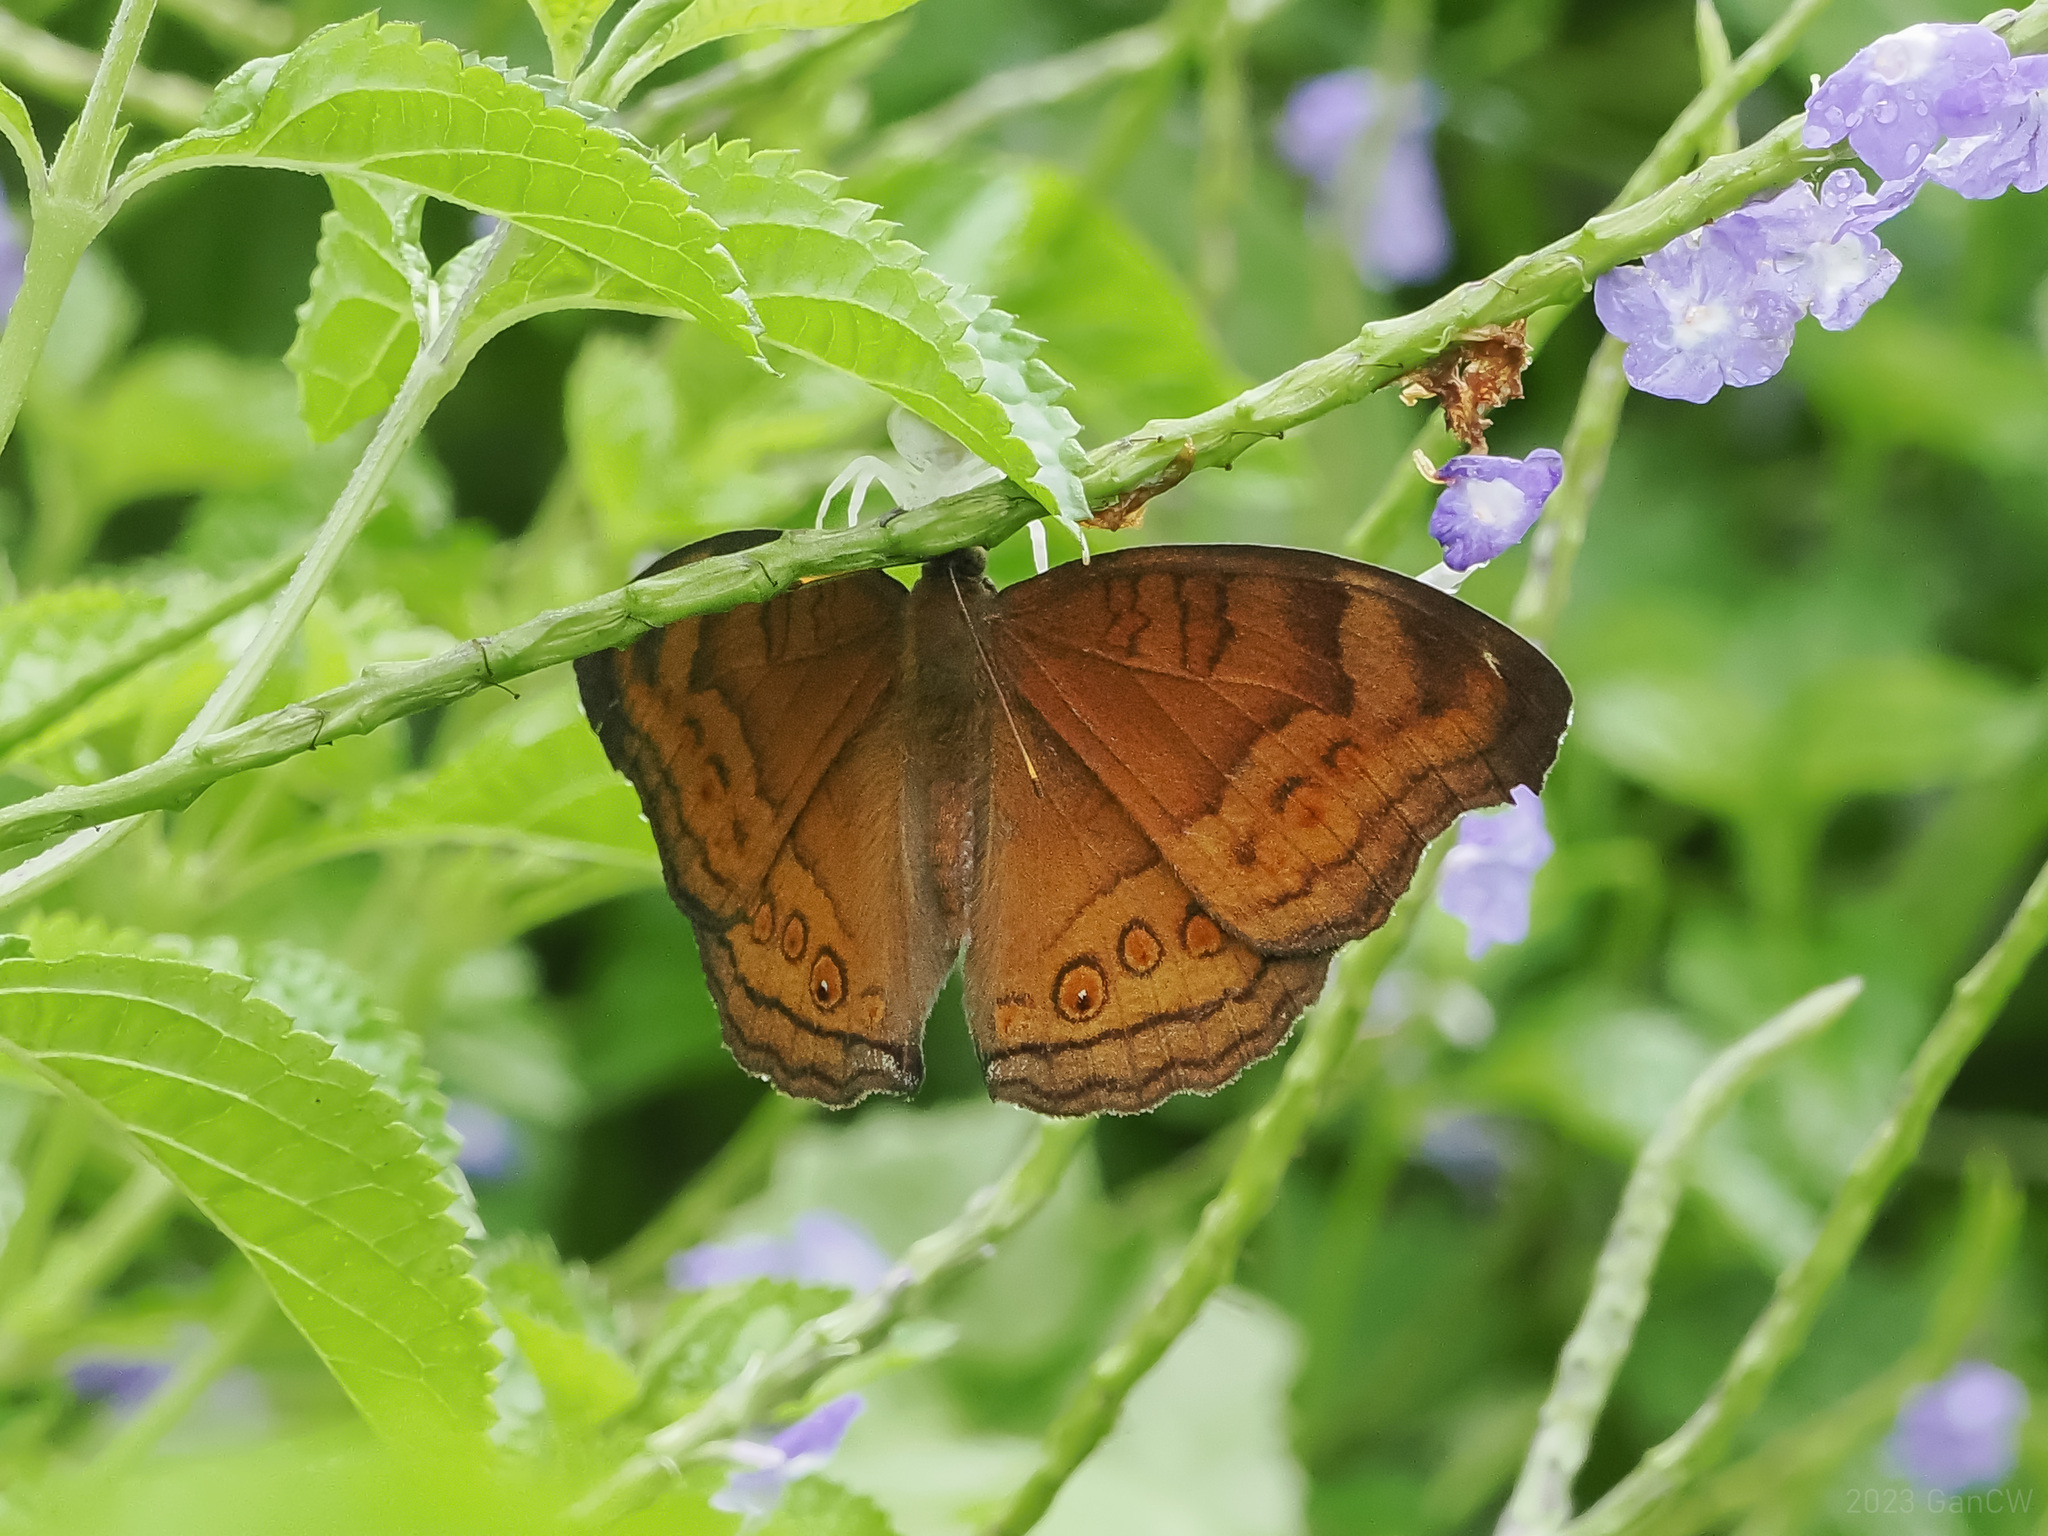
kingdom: Animalia
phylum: Arthropoda
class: Insecta
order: Lepidoptera
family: Nymphalidae
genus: Junonia
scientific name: Junonia hedonia
